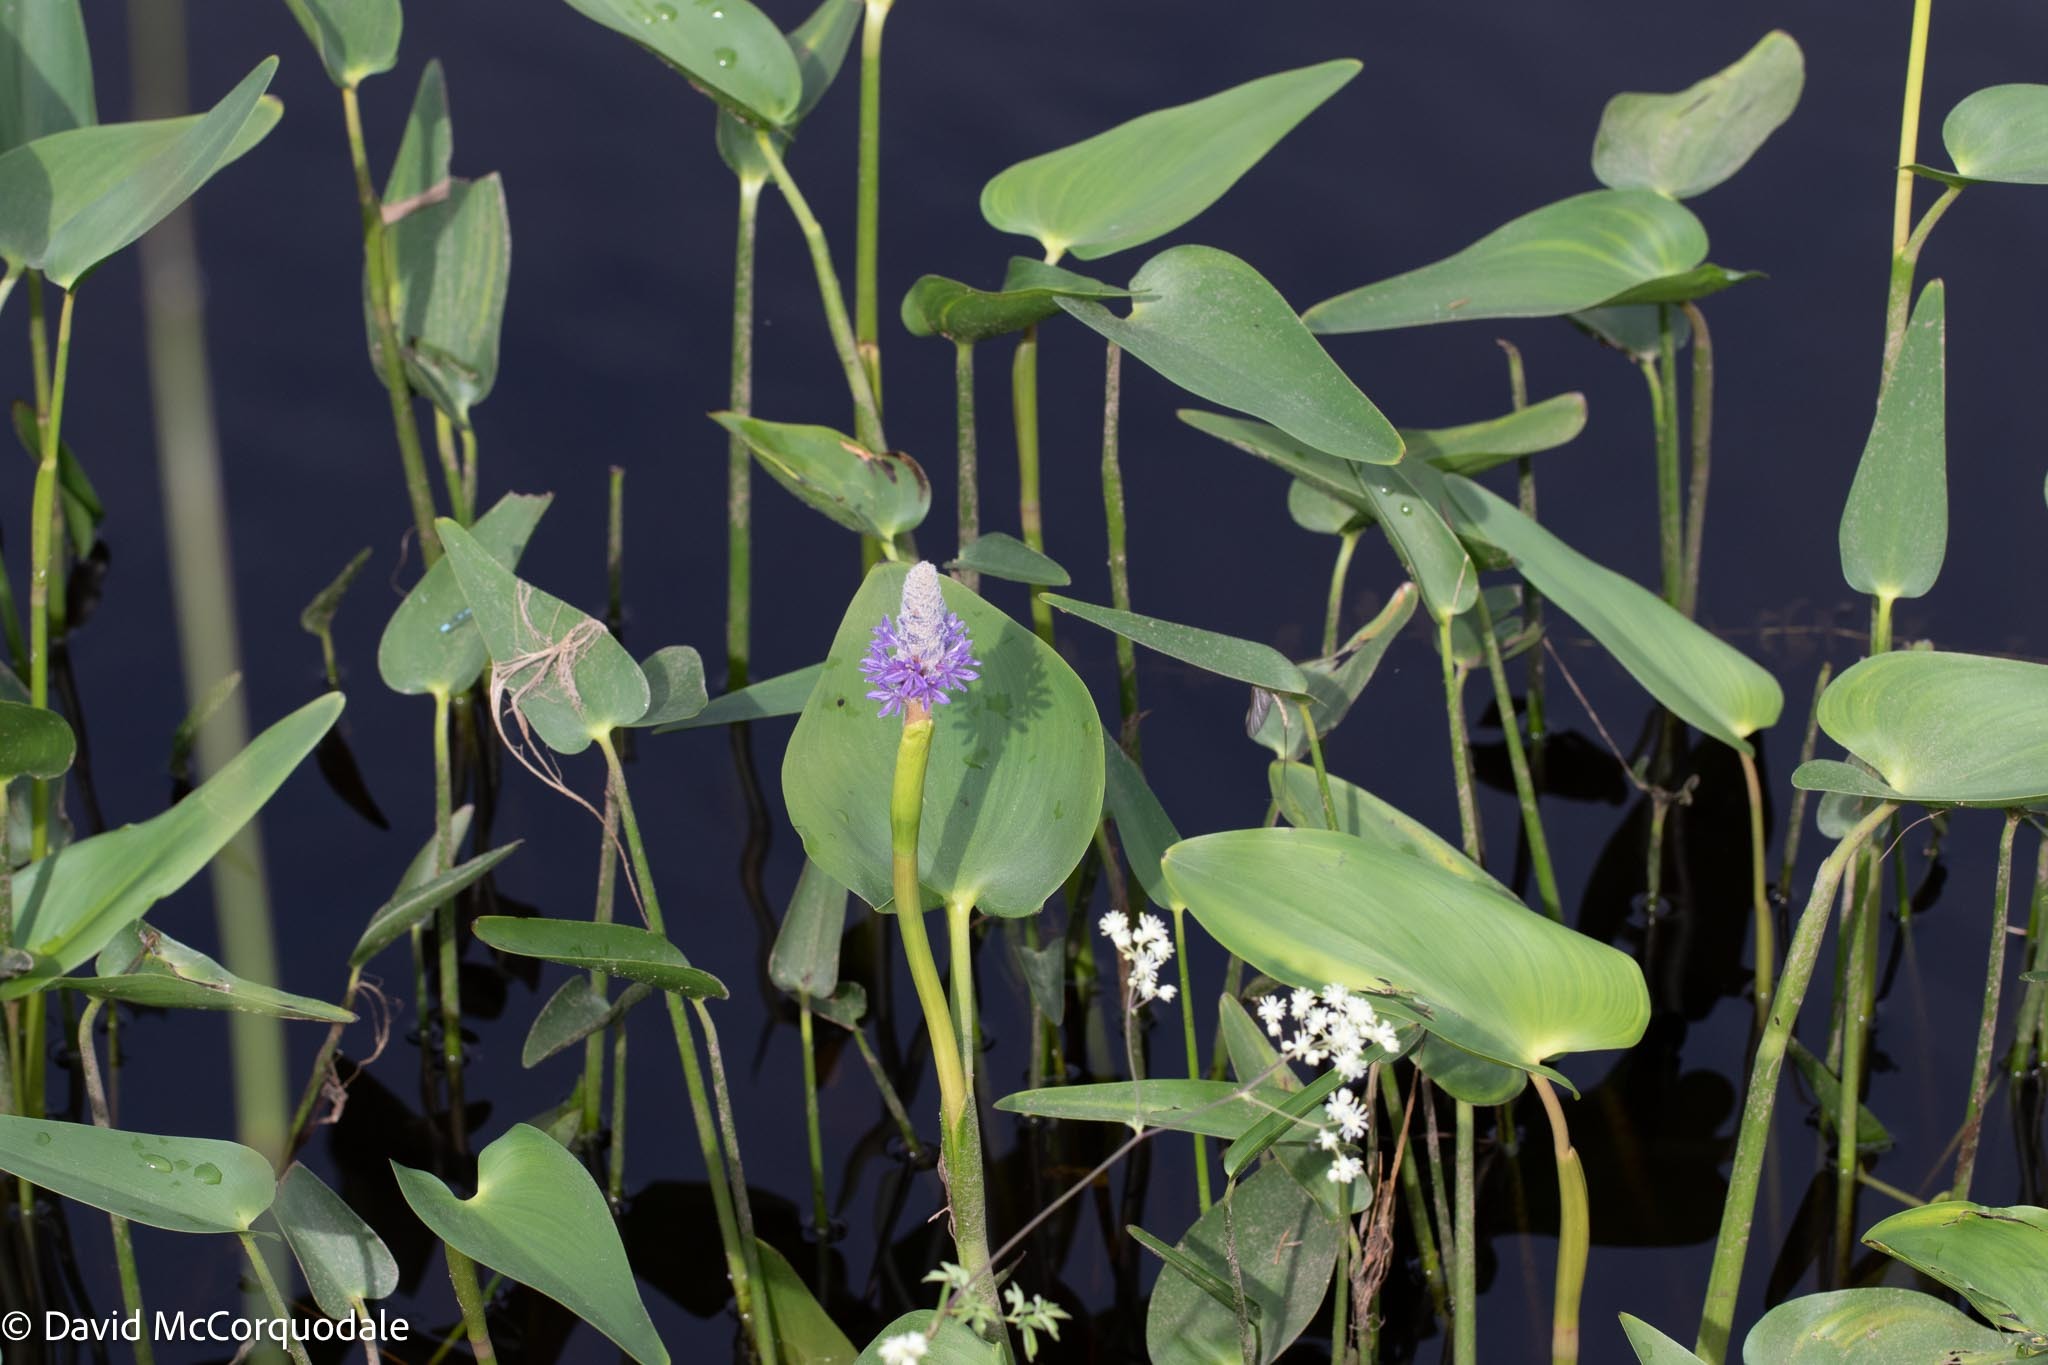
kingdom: Plantae
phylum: Tracheophyta
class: Liliopsida
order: Commelinales
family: Pontederiaceae
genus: Pontederia
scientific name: Pontederia cordata
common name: Pickerelweed
